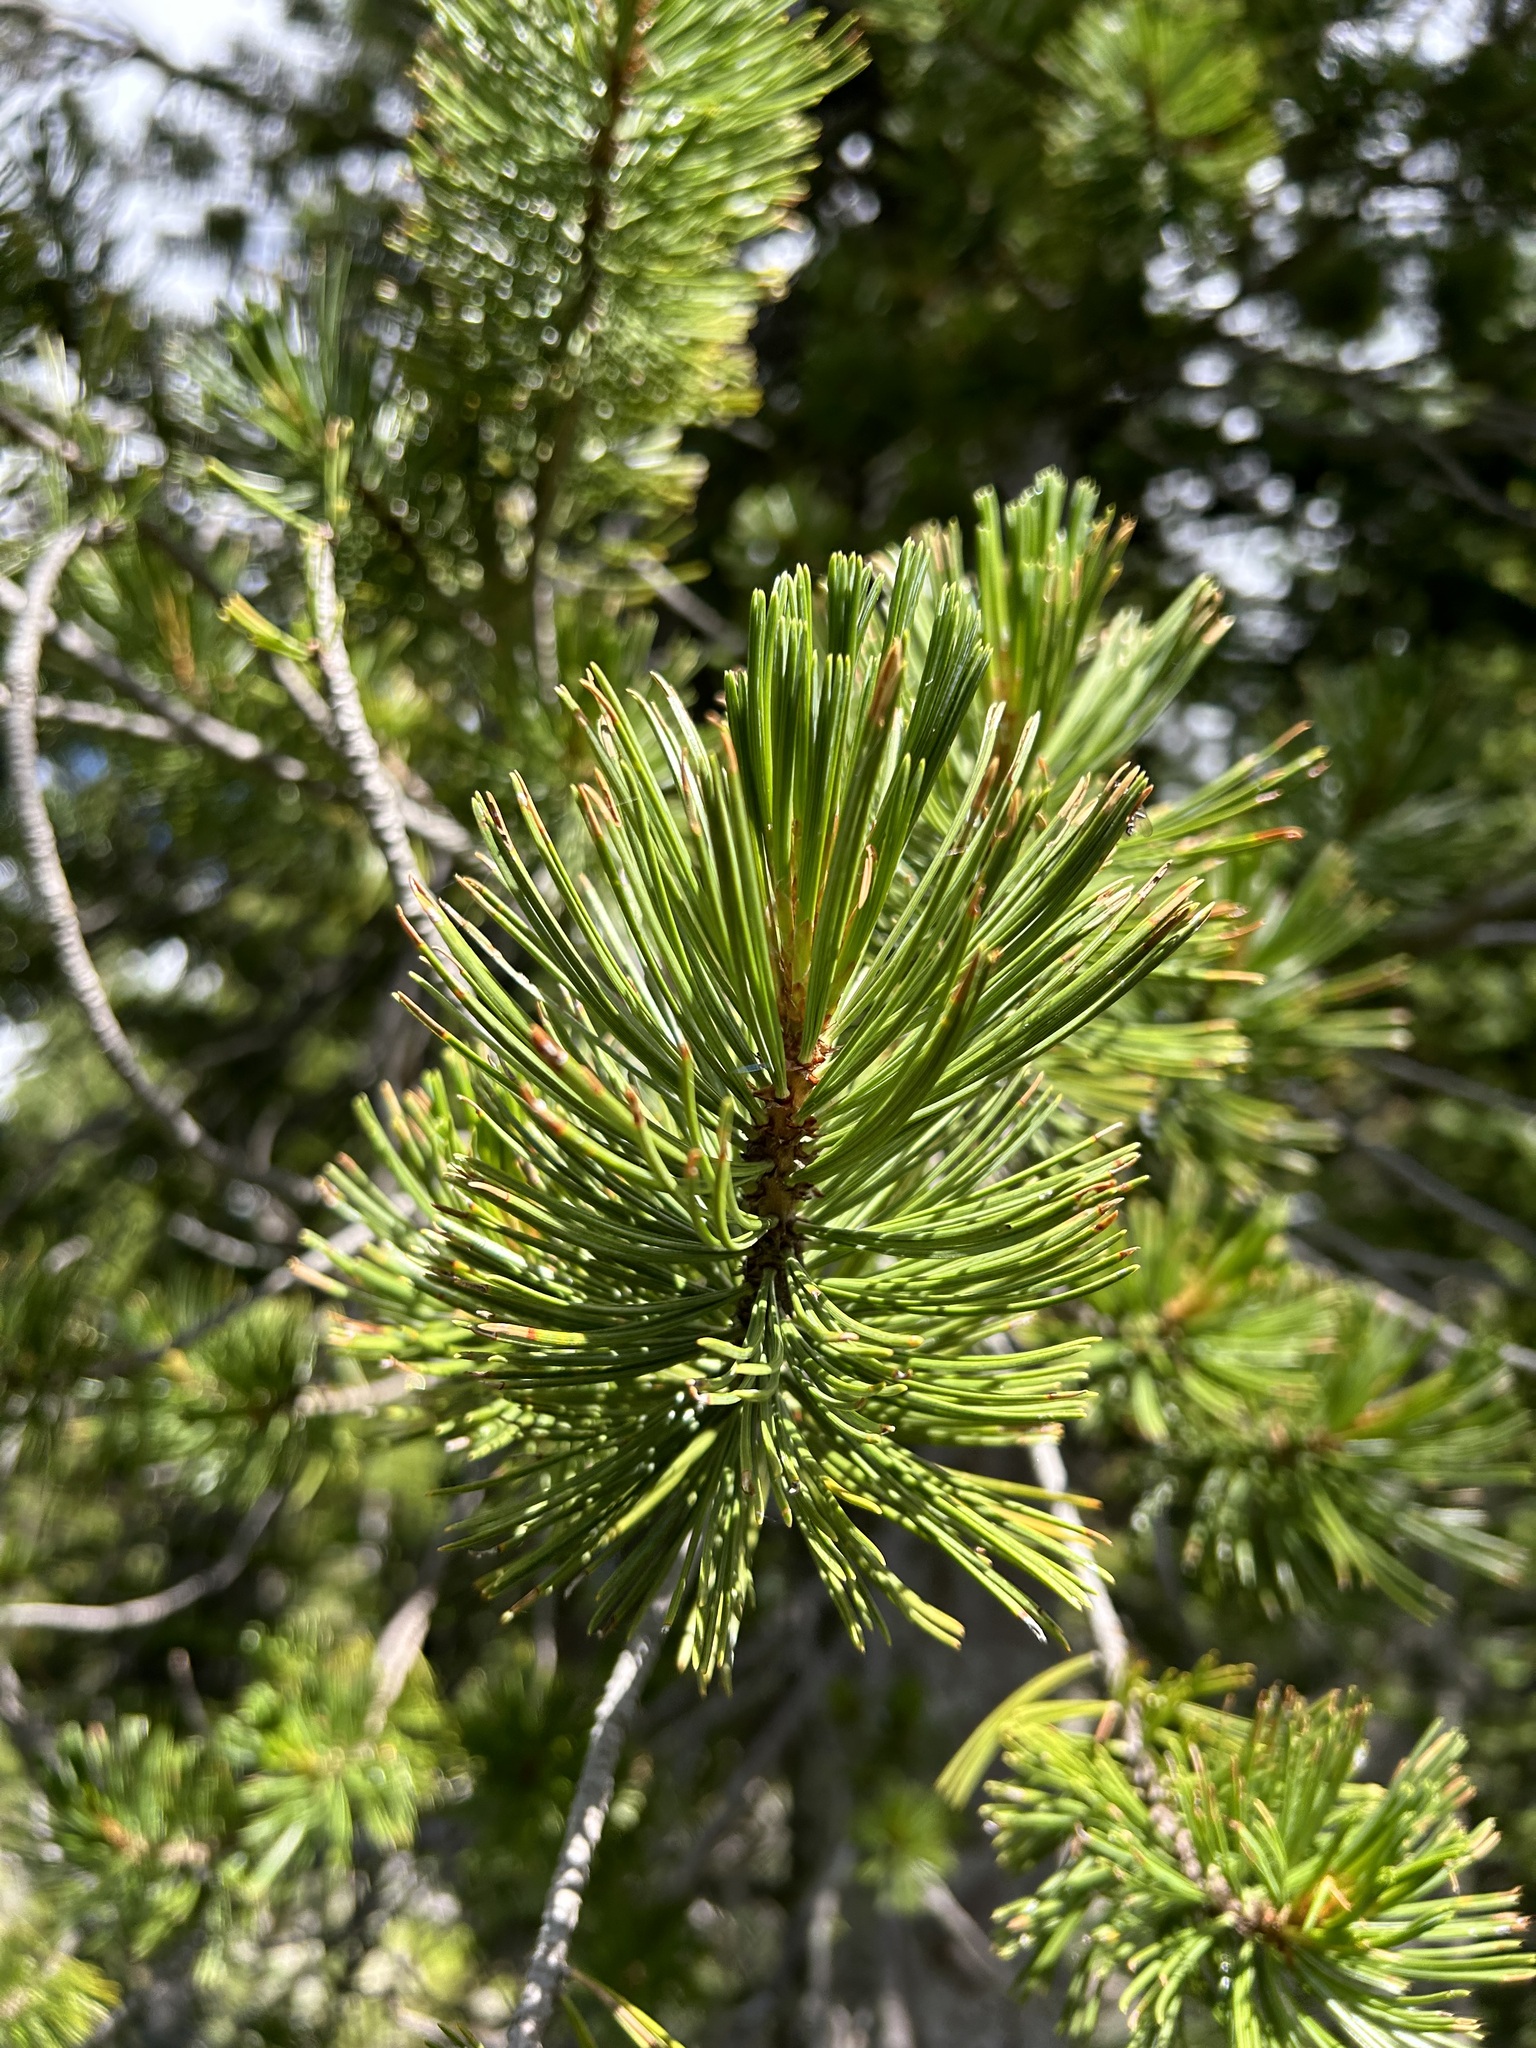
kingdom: Plantae
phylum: Tracheophyta
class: Pinopsida
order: Pinales
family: Pinaceae
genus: Pinus
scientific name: Pinus albicaulis
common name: Whitebark pine
